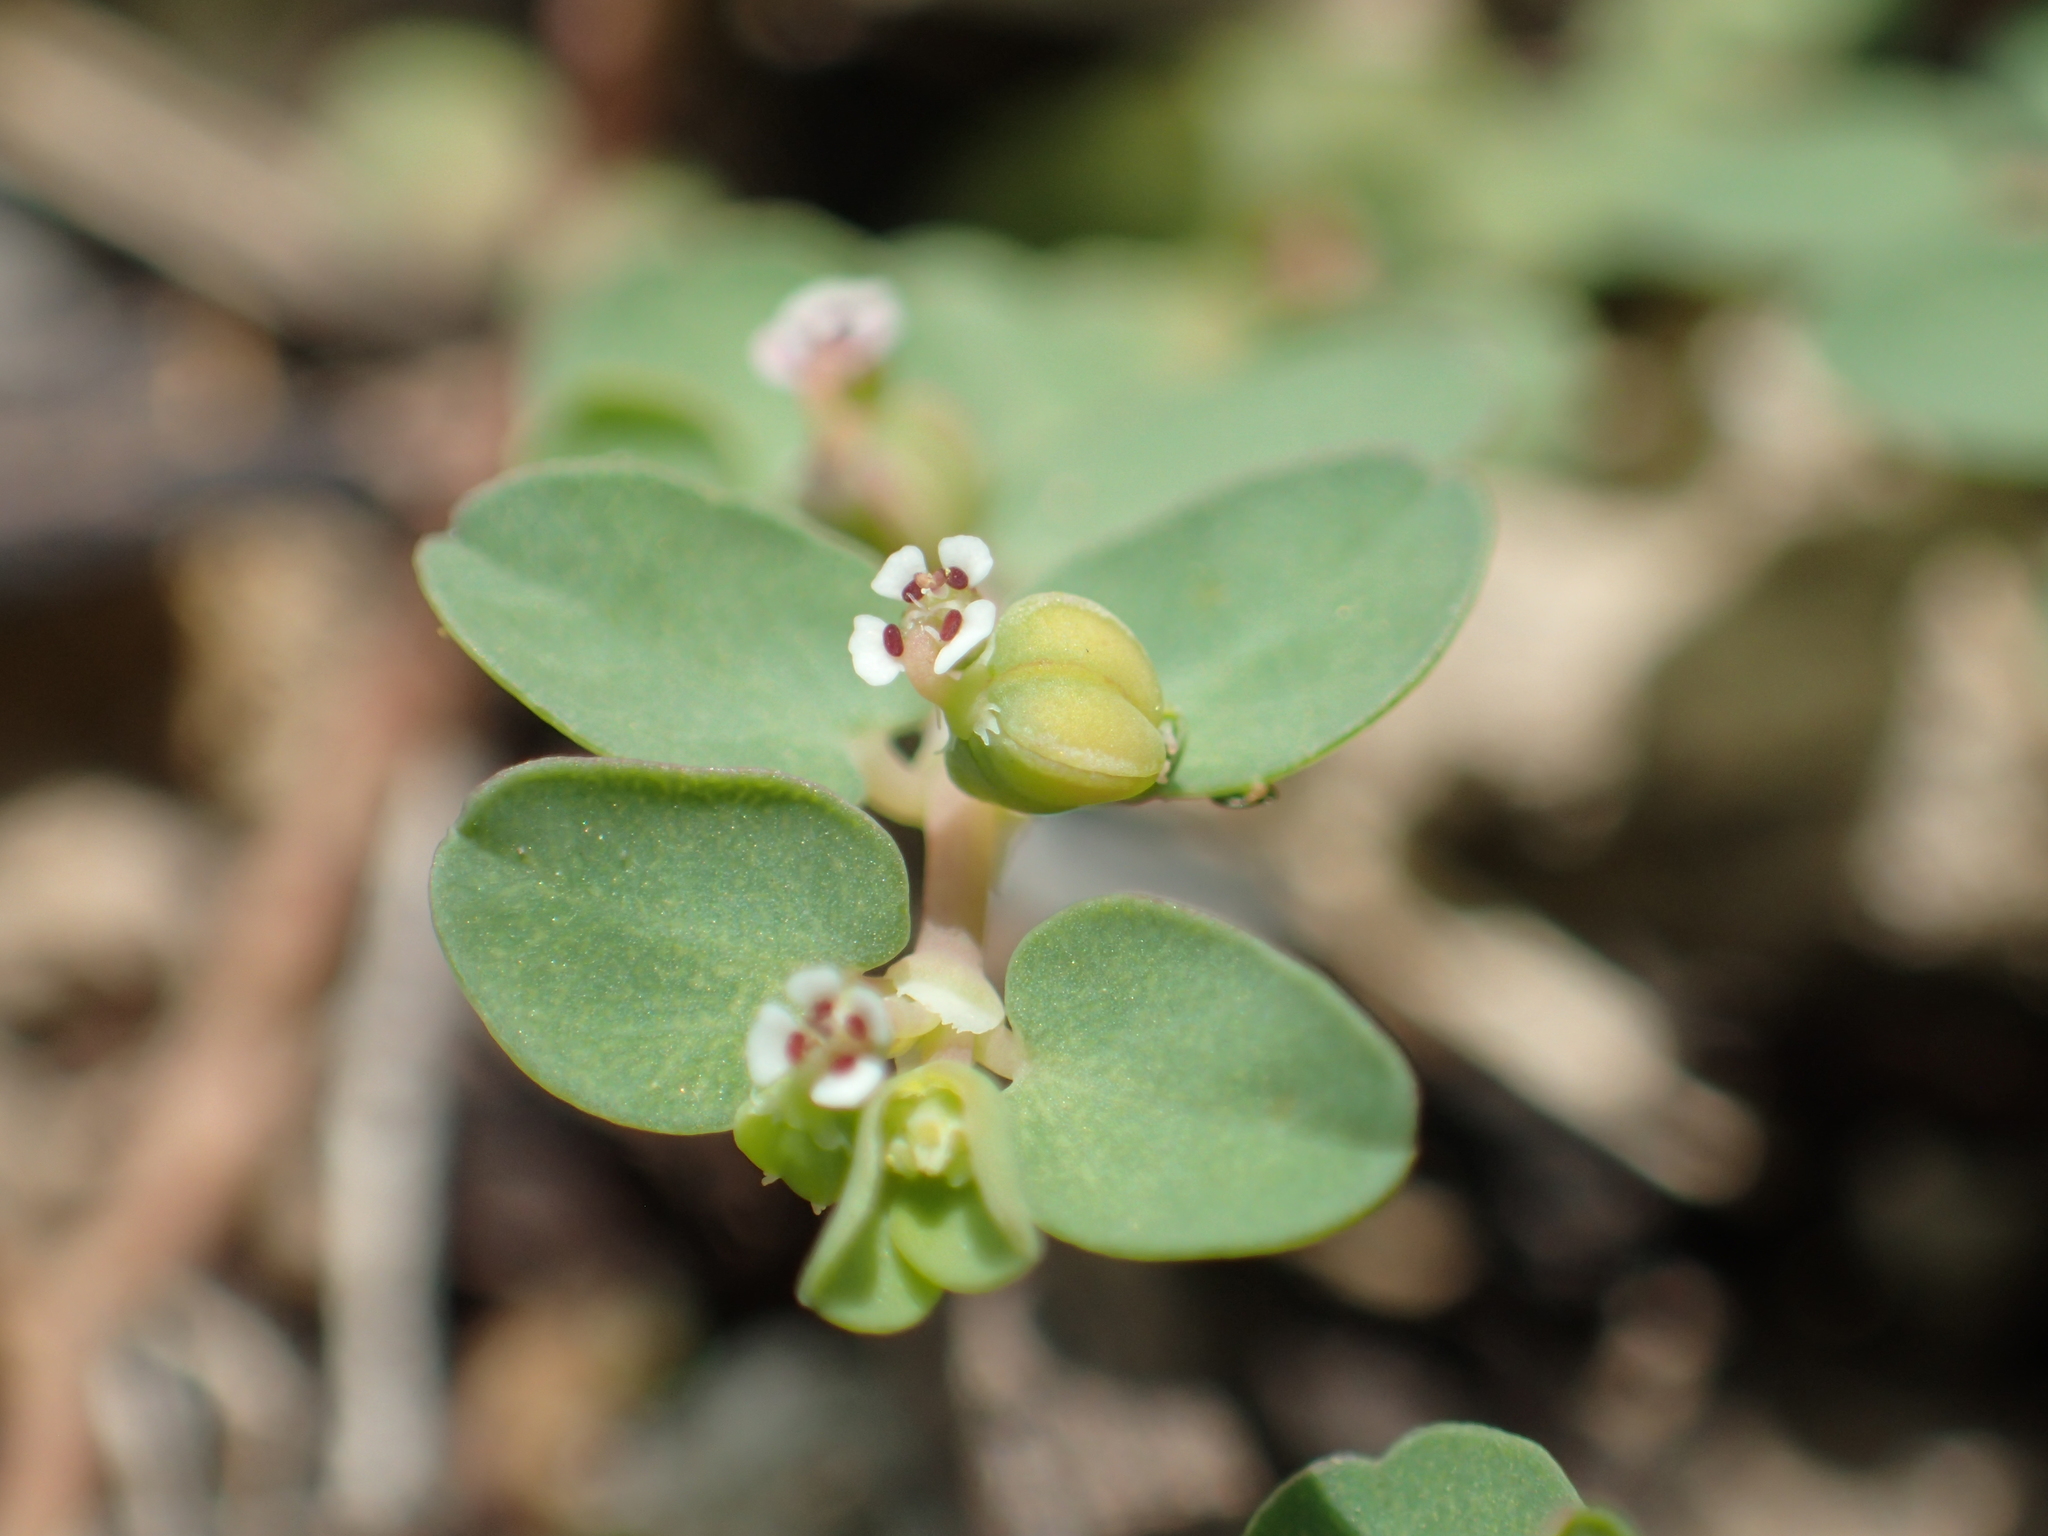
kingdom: Plantae
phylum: Tracheophyta
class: Magnoliopsida
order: Malpighiales
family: Euphorbiaceae
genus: Euphorbia
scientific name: Euphorbia serpens
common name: Matted sandmat
